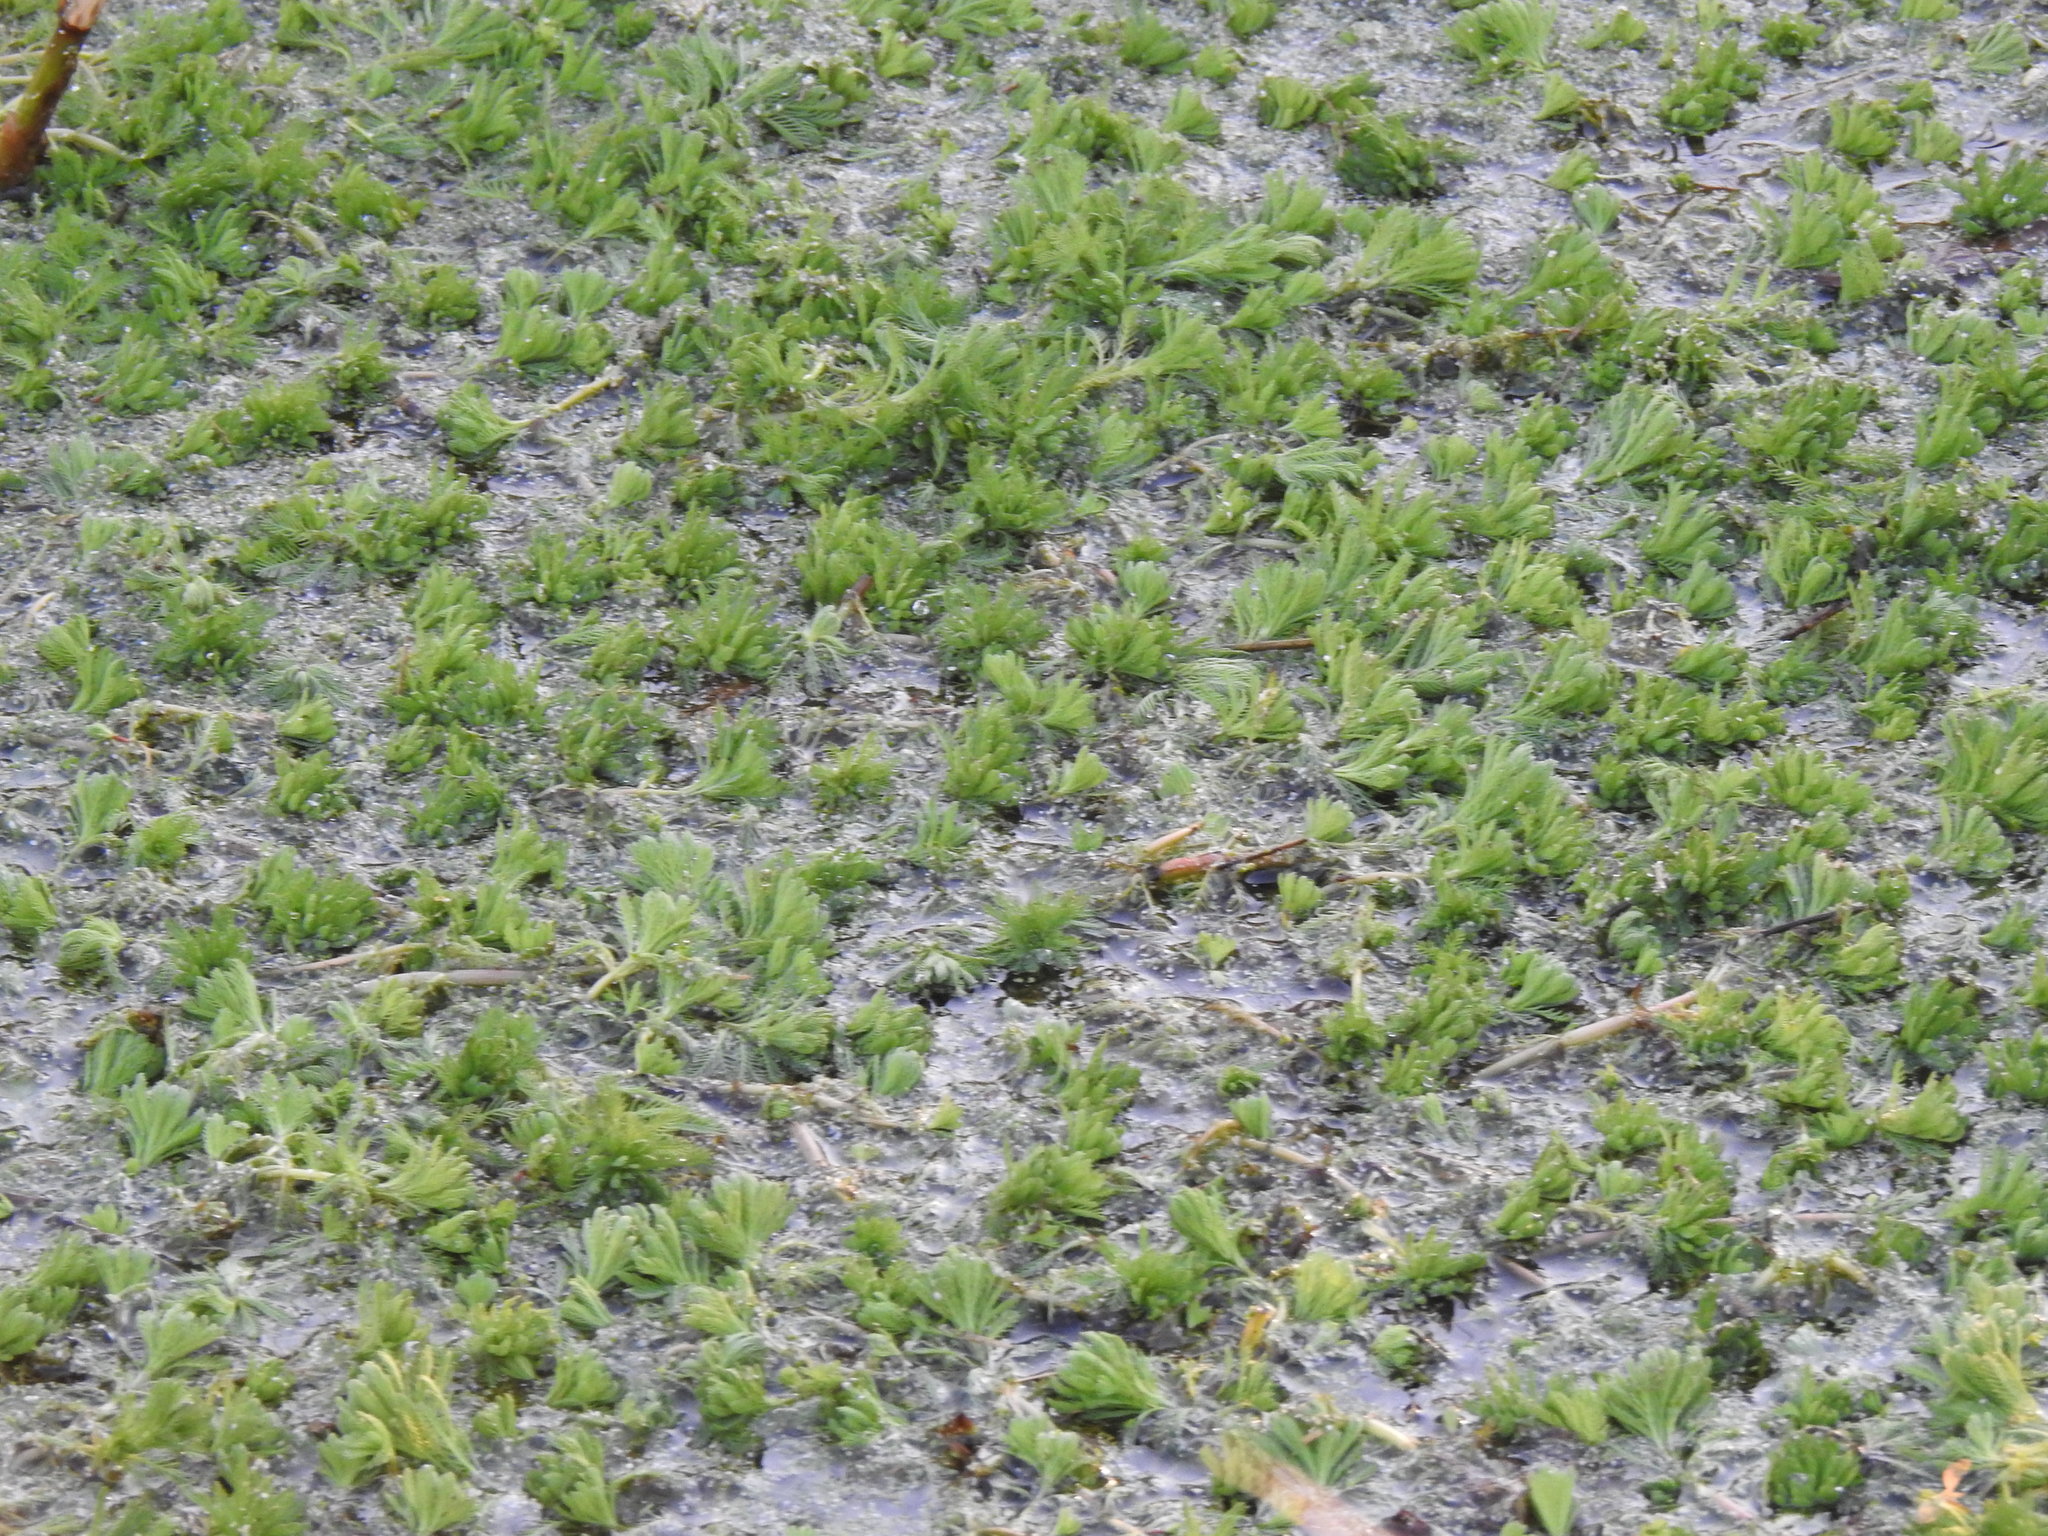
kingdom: Plantae
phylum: Tracheophyta
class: Magnoliopsida
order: Saxifragales
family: Haloragaceae
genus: Myriophyllum
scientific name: Myriophyllum aquaticum
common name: Parrot's feather
